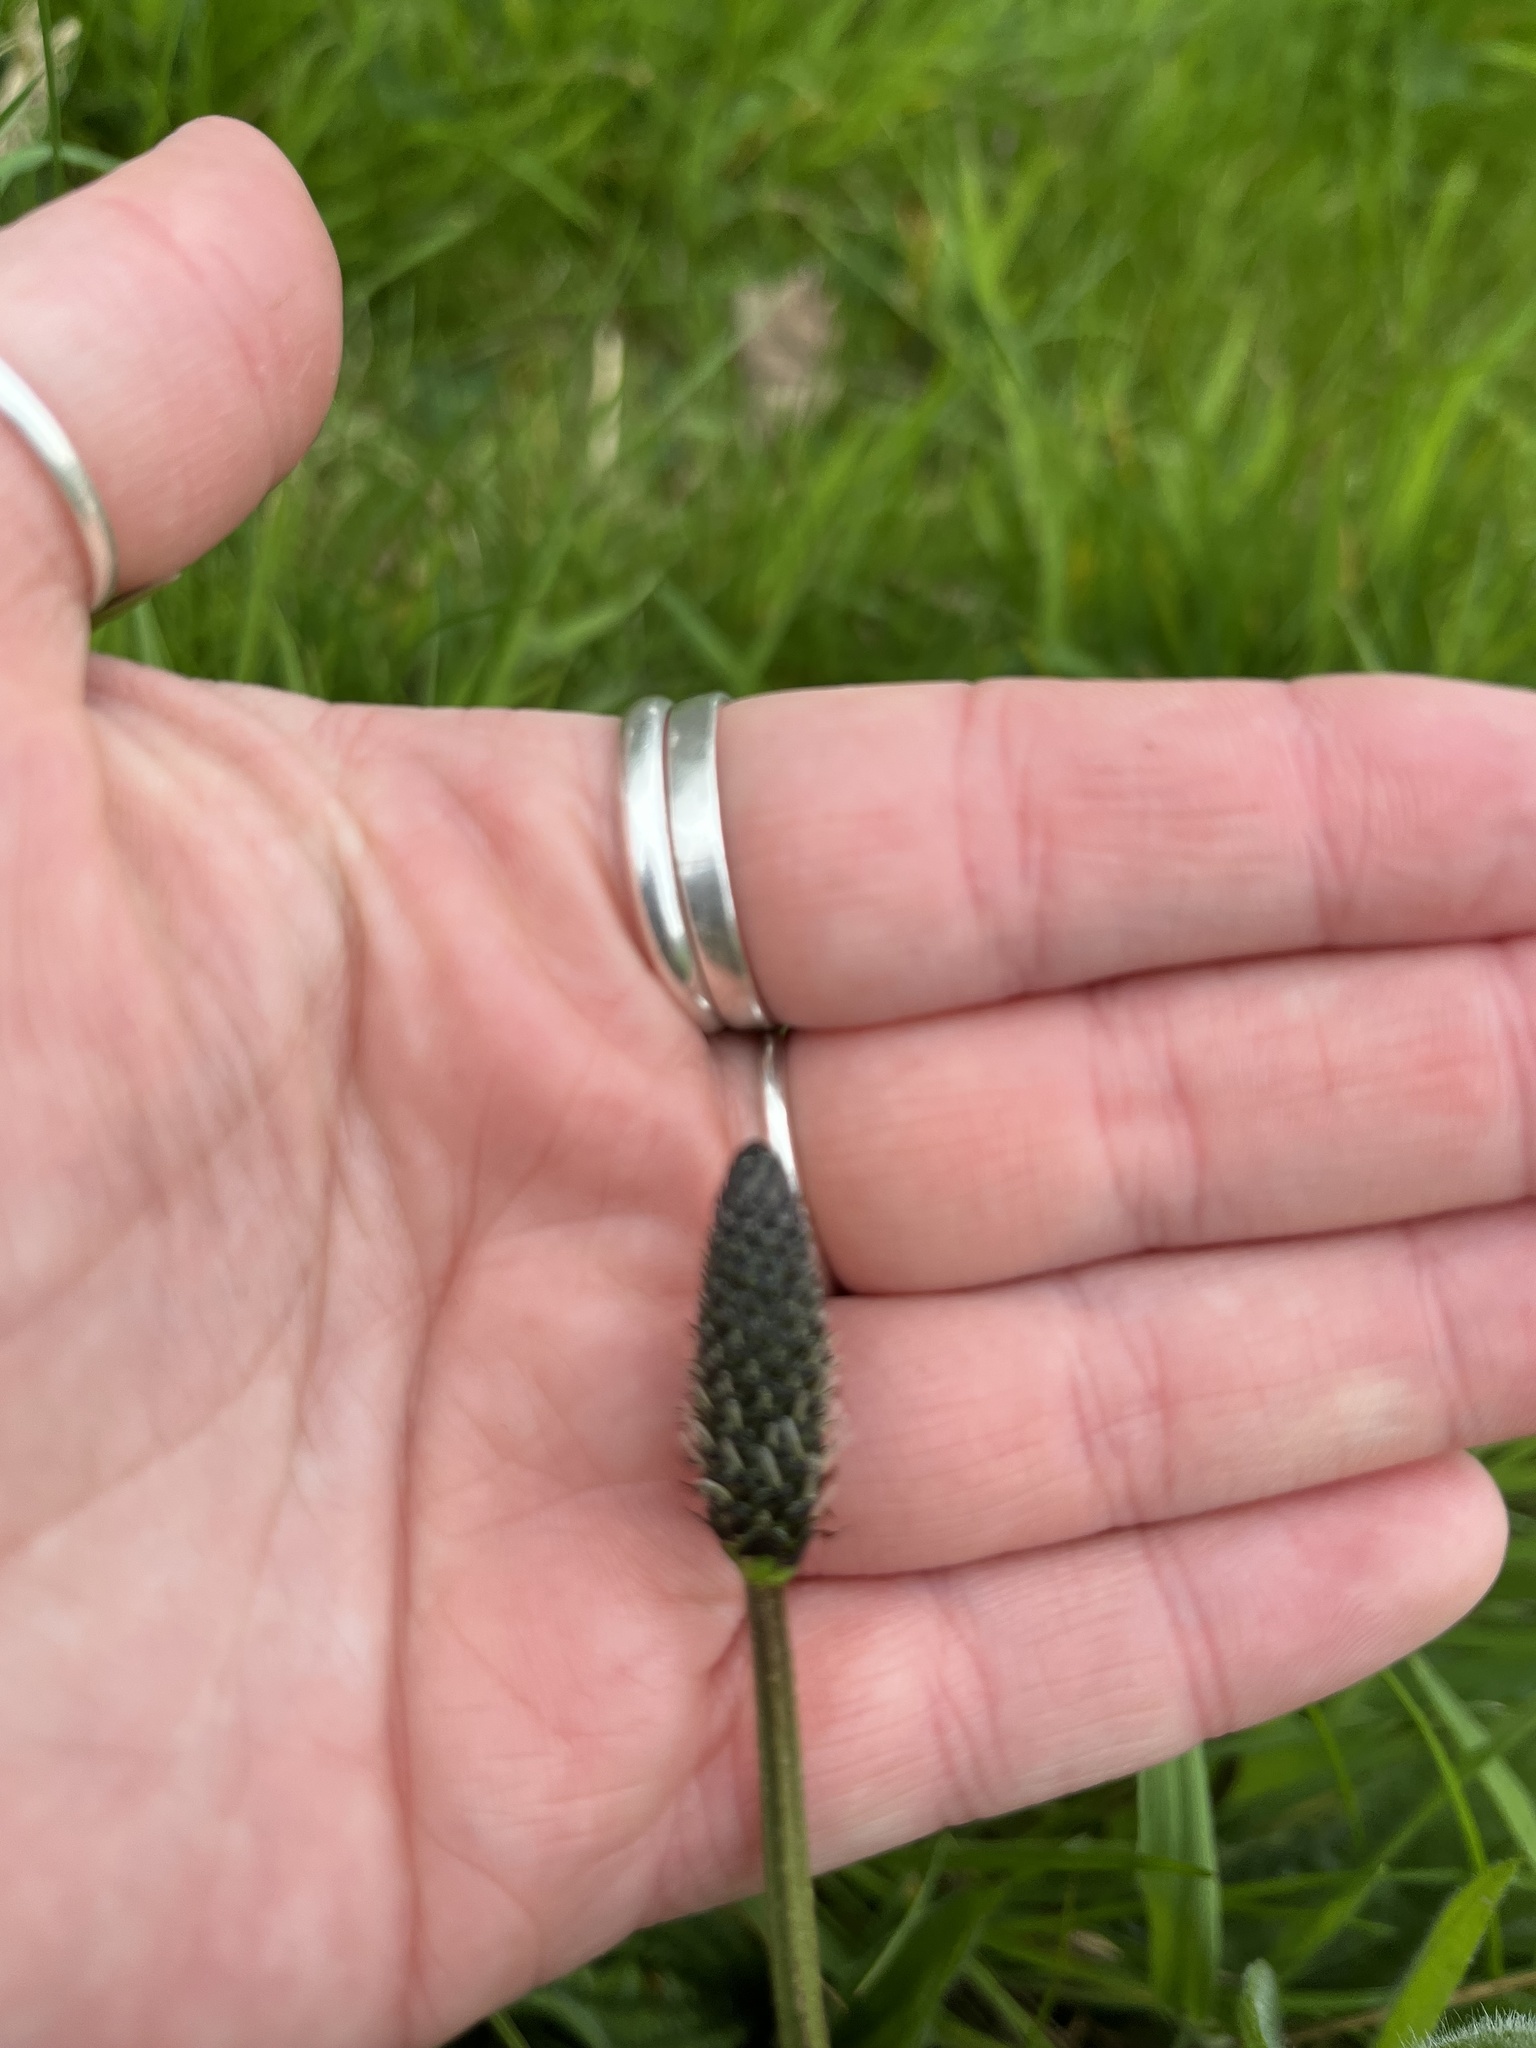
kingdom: Plantae
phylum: Tracheophyta
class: Magnoliopsida
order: Lamiales
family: Plantaginaceae
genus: Plantago
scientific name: Plantago lanceolata
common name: Ribwort plantain
